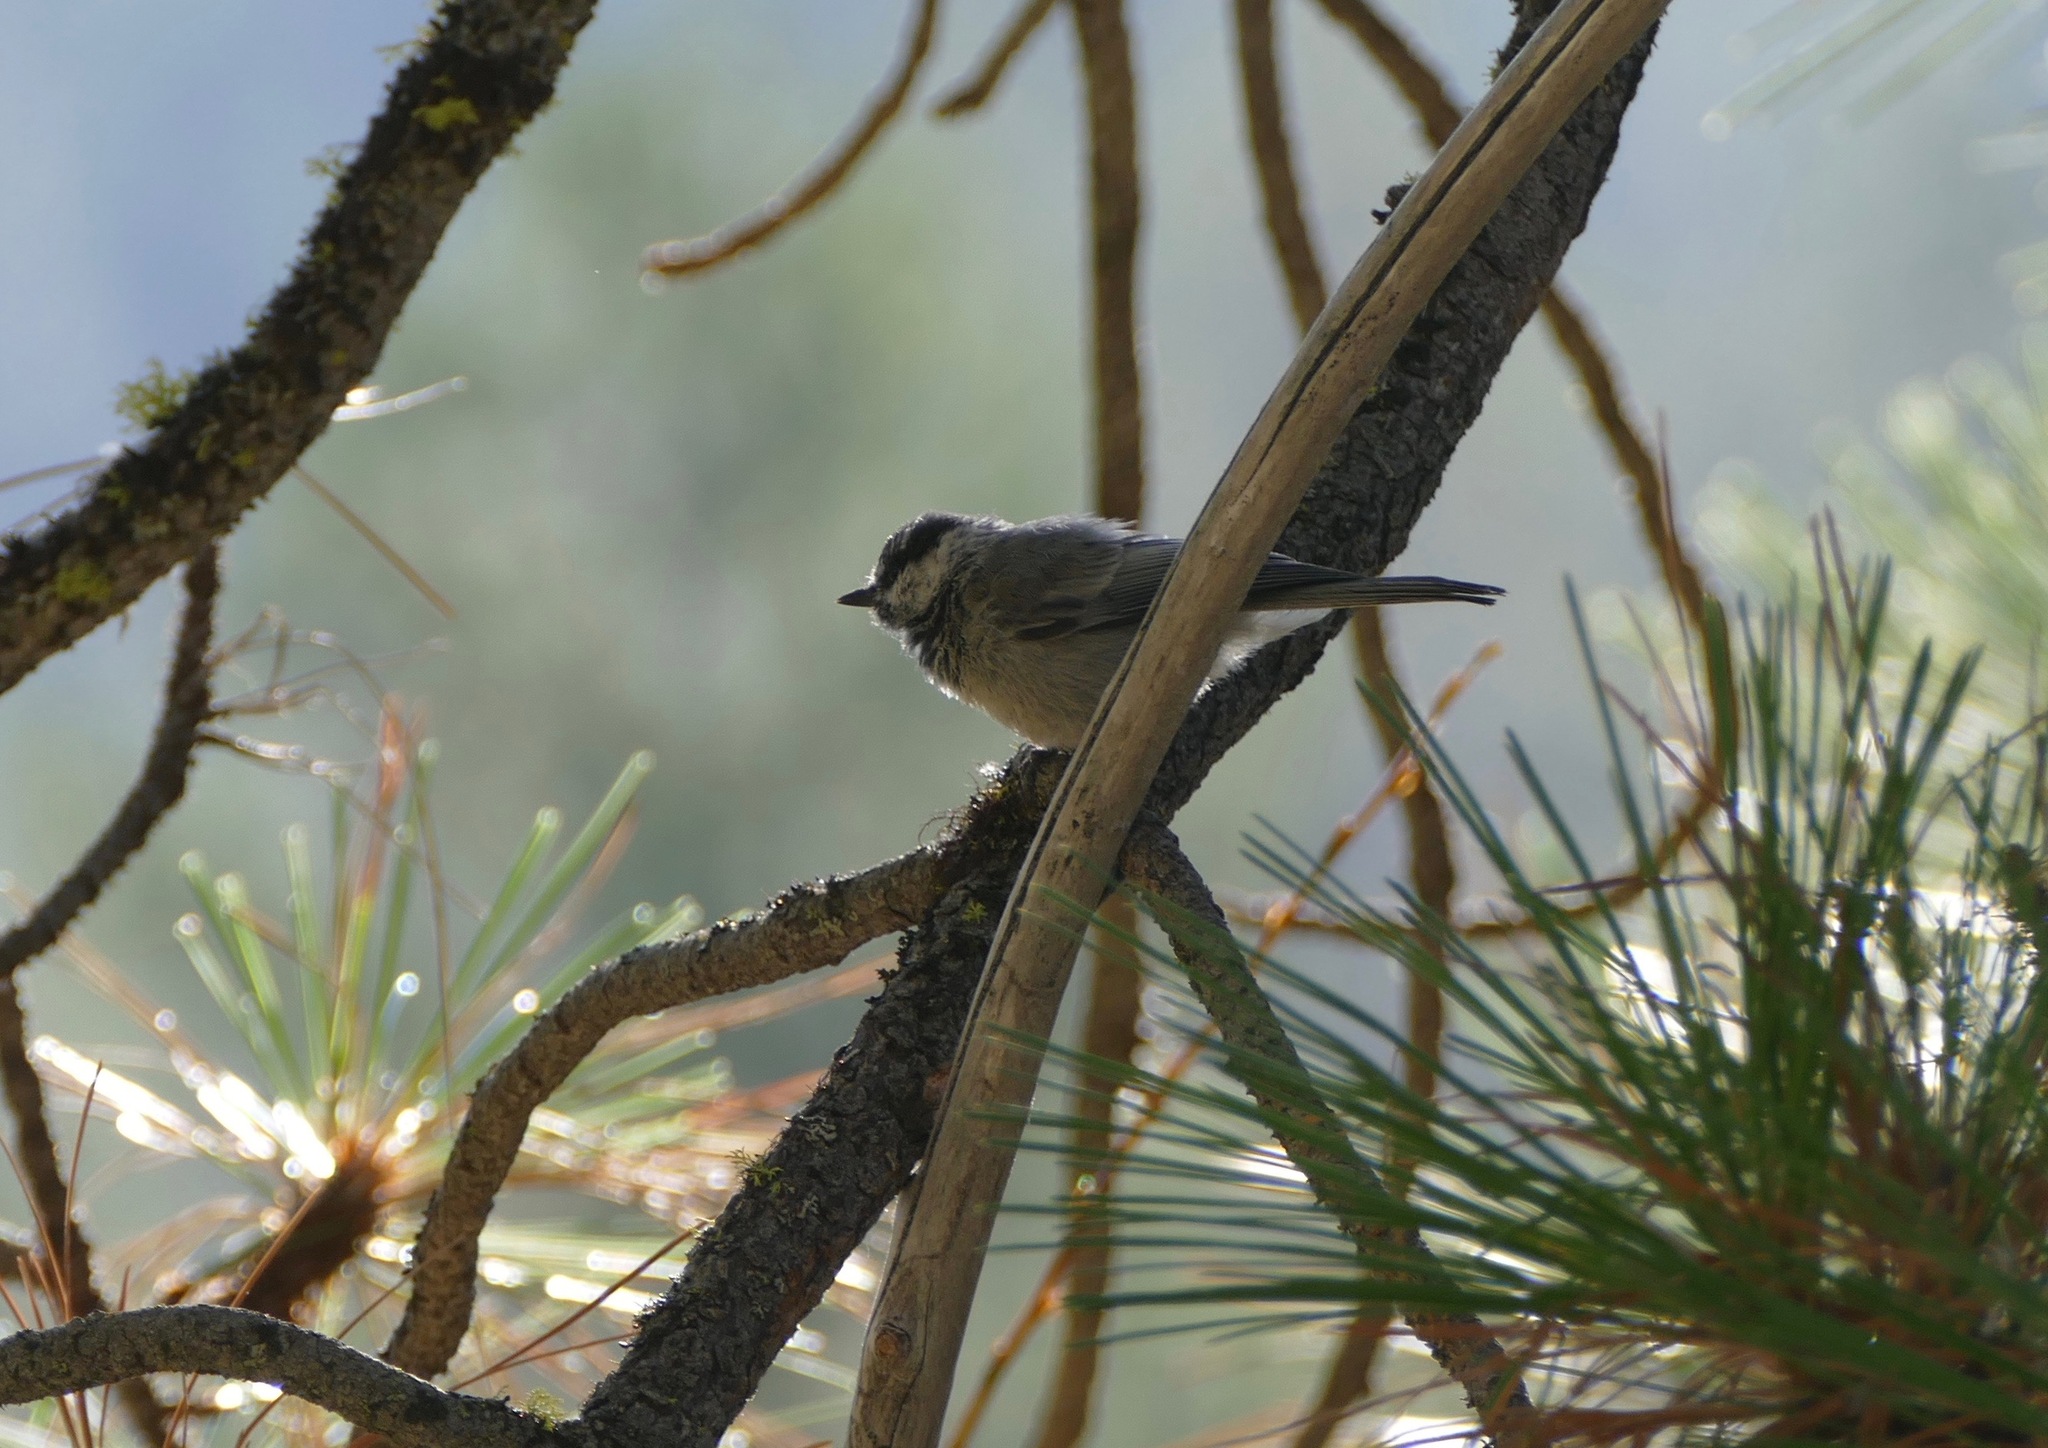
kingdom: Animalia
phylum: Chordata
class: Aves
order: Passeriformes
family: Paridae
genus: Poecile
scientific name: Poecile gambeli
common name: Mountain chickadee
